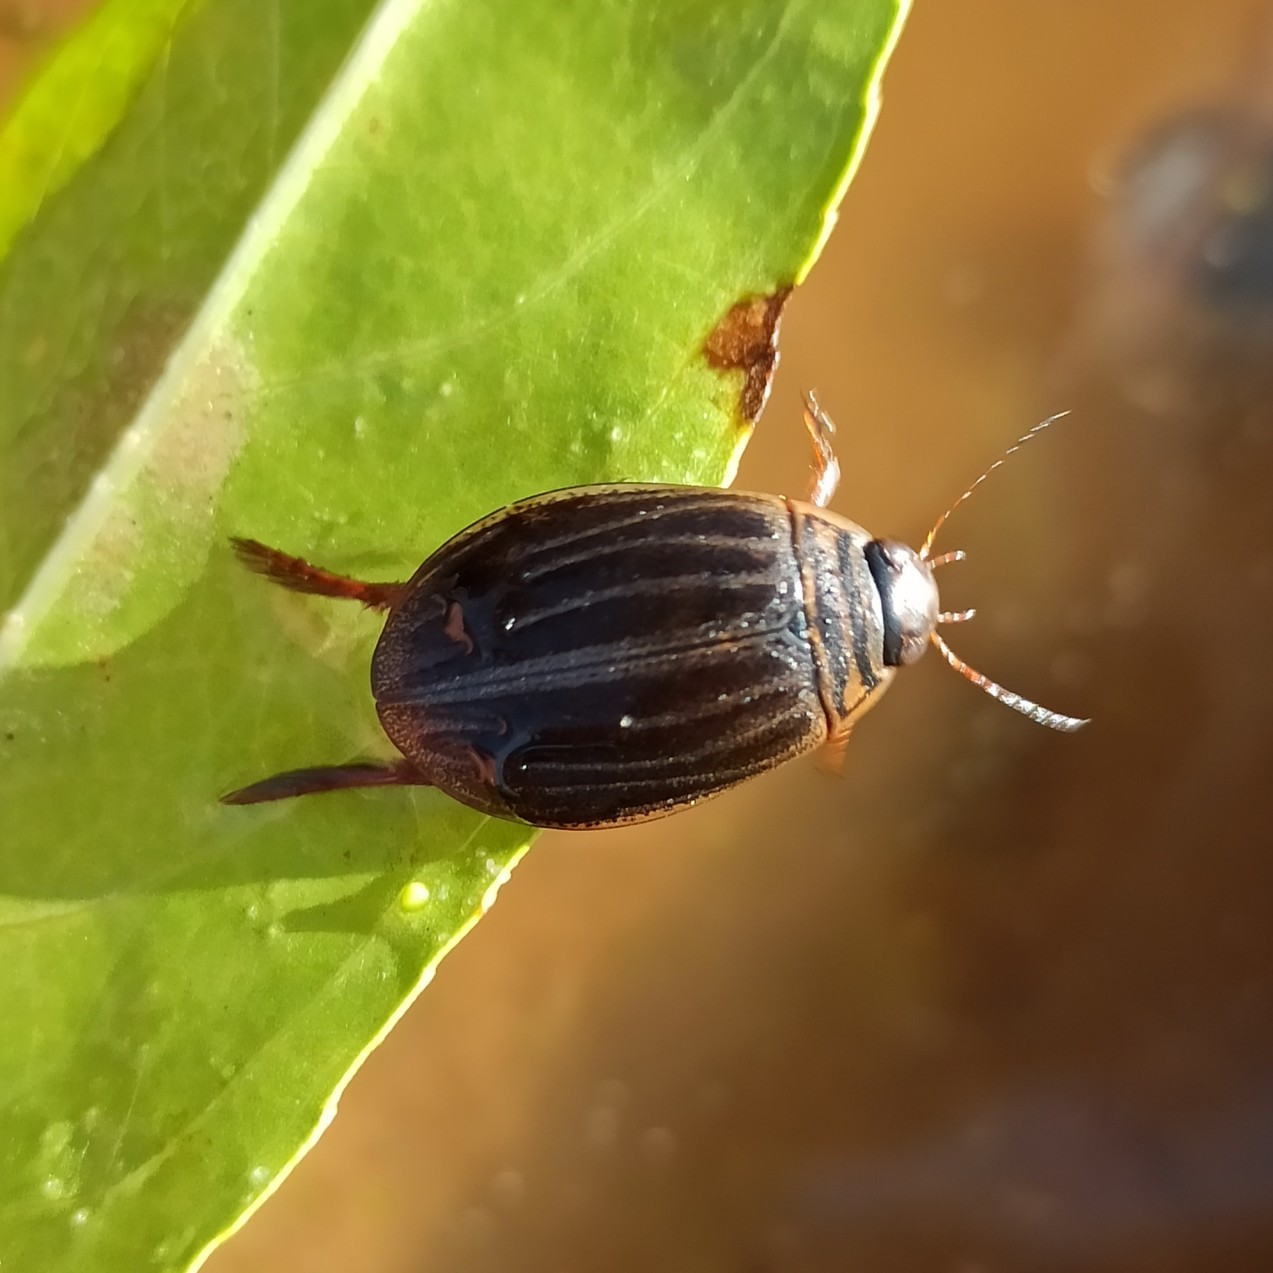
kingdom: Animalia
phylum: Arthropoda
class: Insecta
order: Coleoptera
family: Dytiscidae
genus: Acilius
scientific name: Acilius canaliculatus
